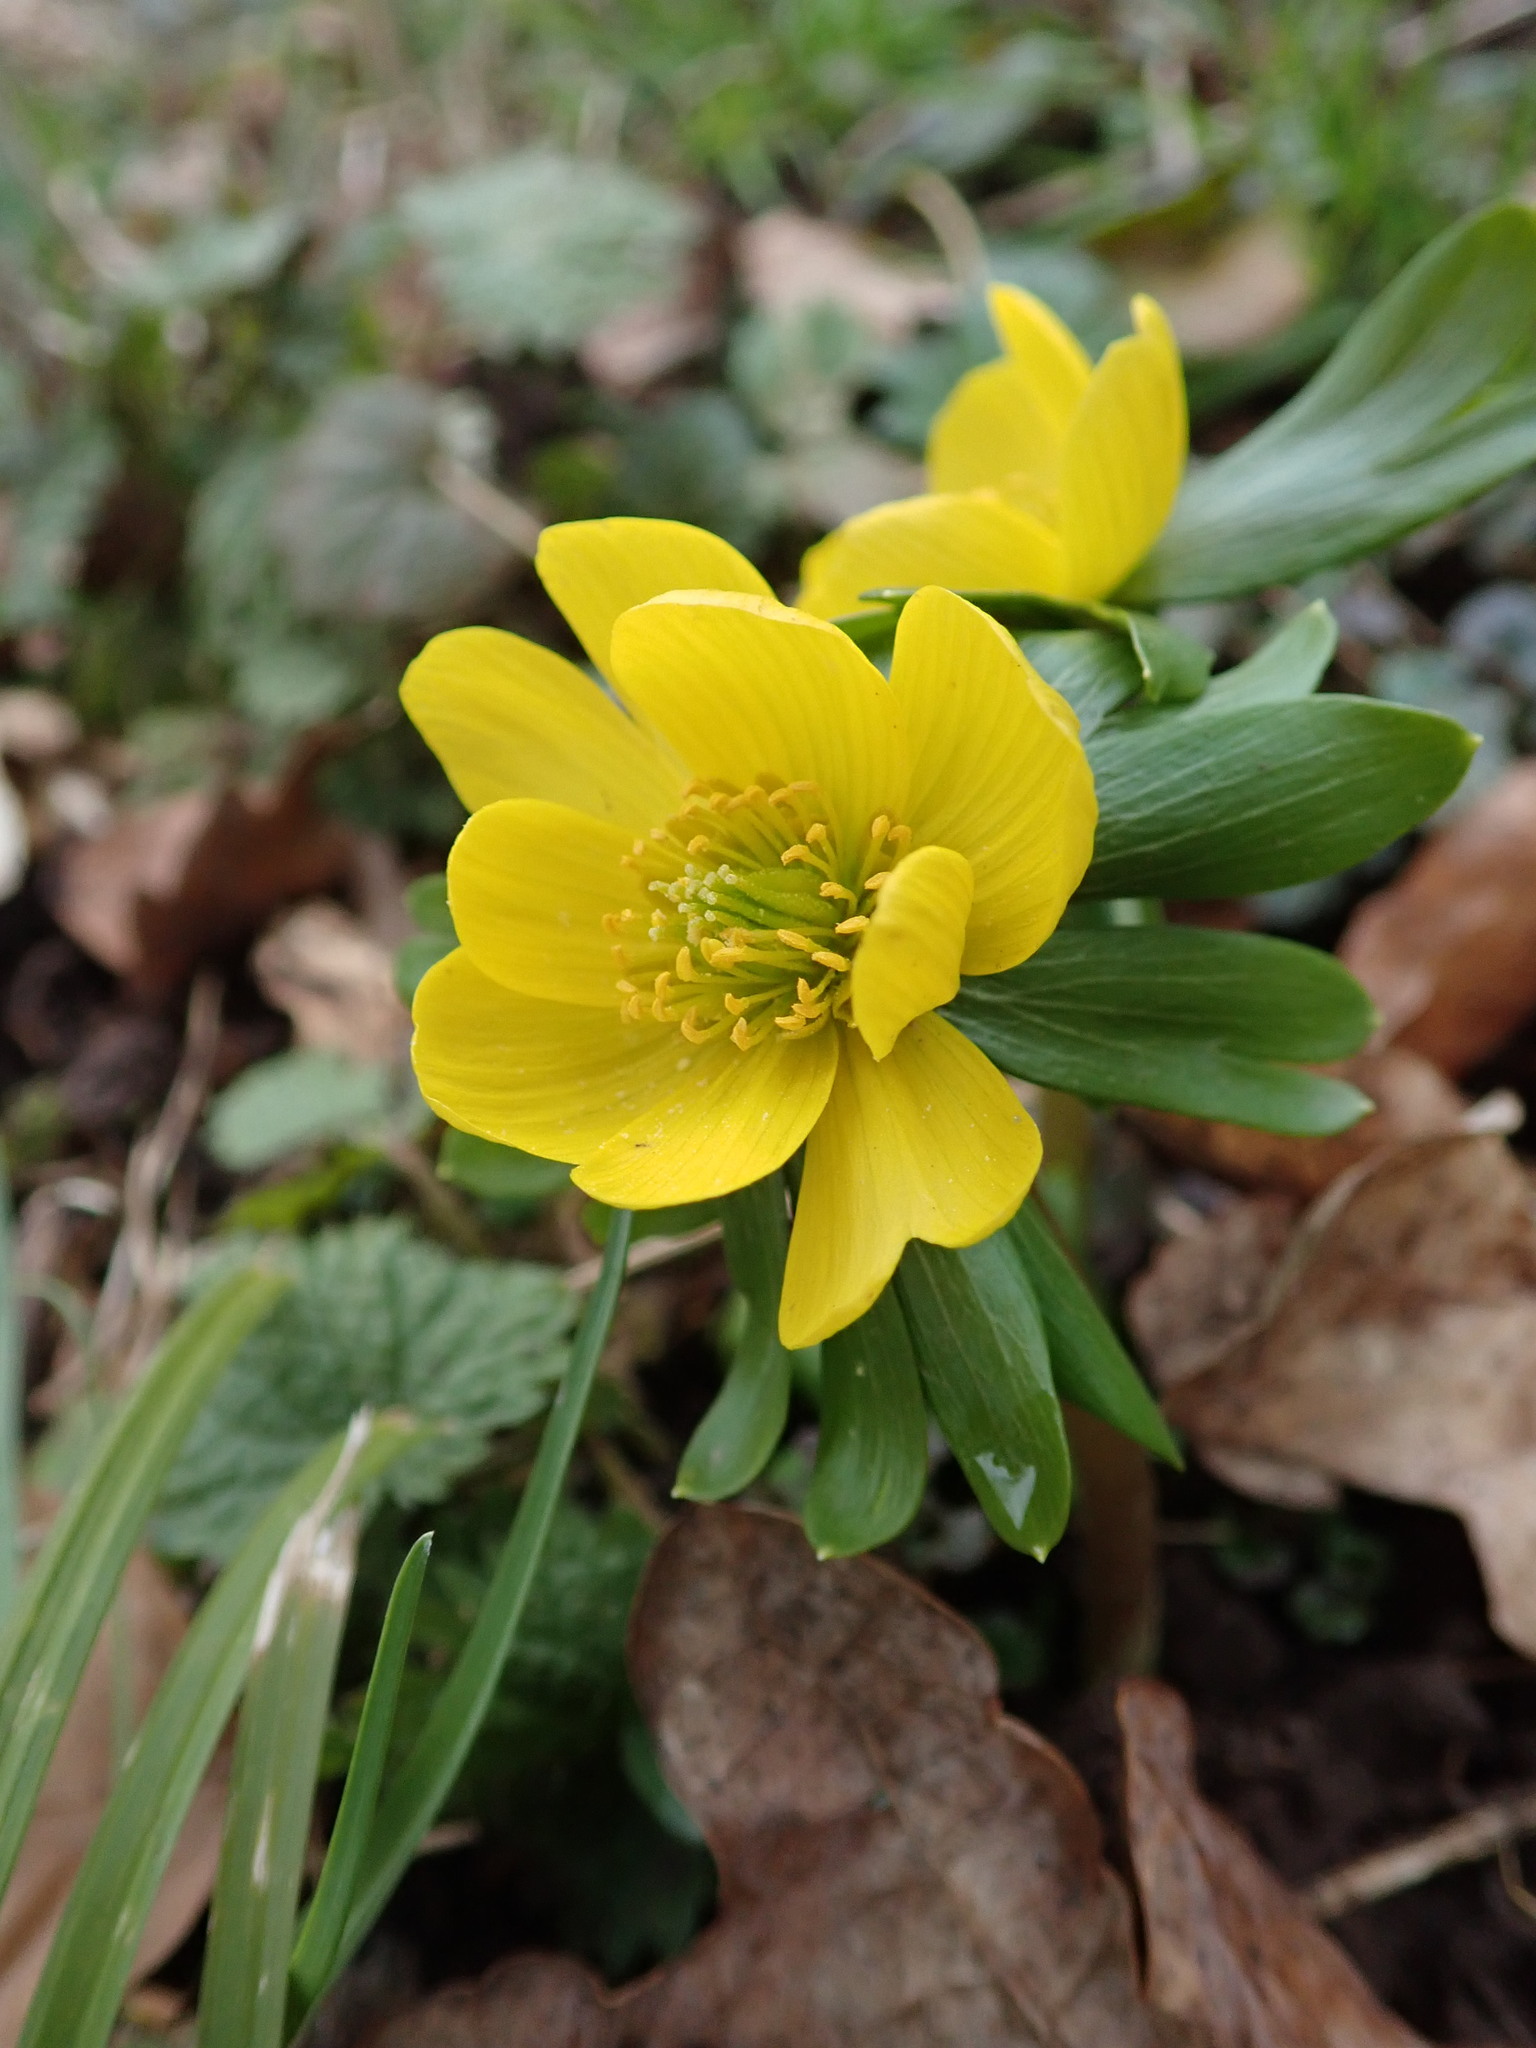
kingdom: Plantae
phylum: Tracheophyta
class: Magnoliopsida
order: Ranunculales
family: Ranunculaceae
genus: Eranthis
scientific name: Eranthis hyemalis
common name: Winter aconite
